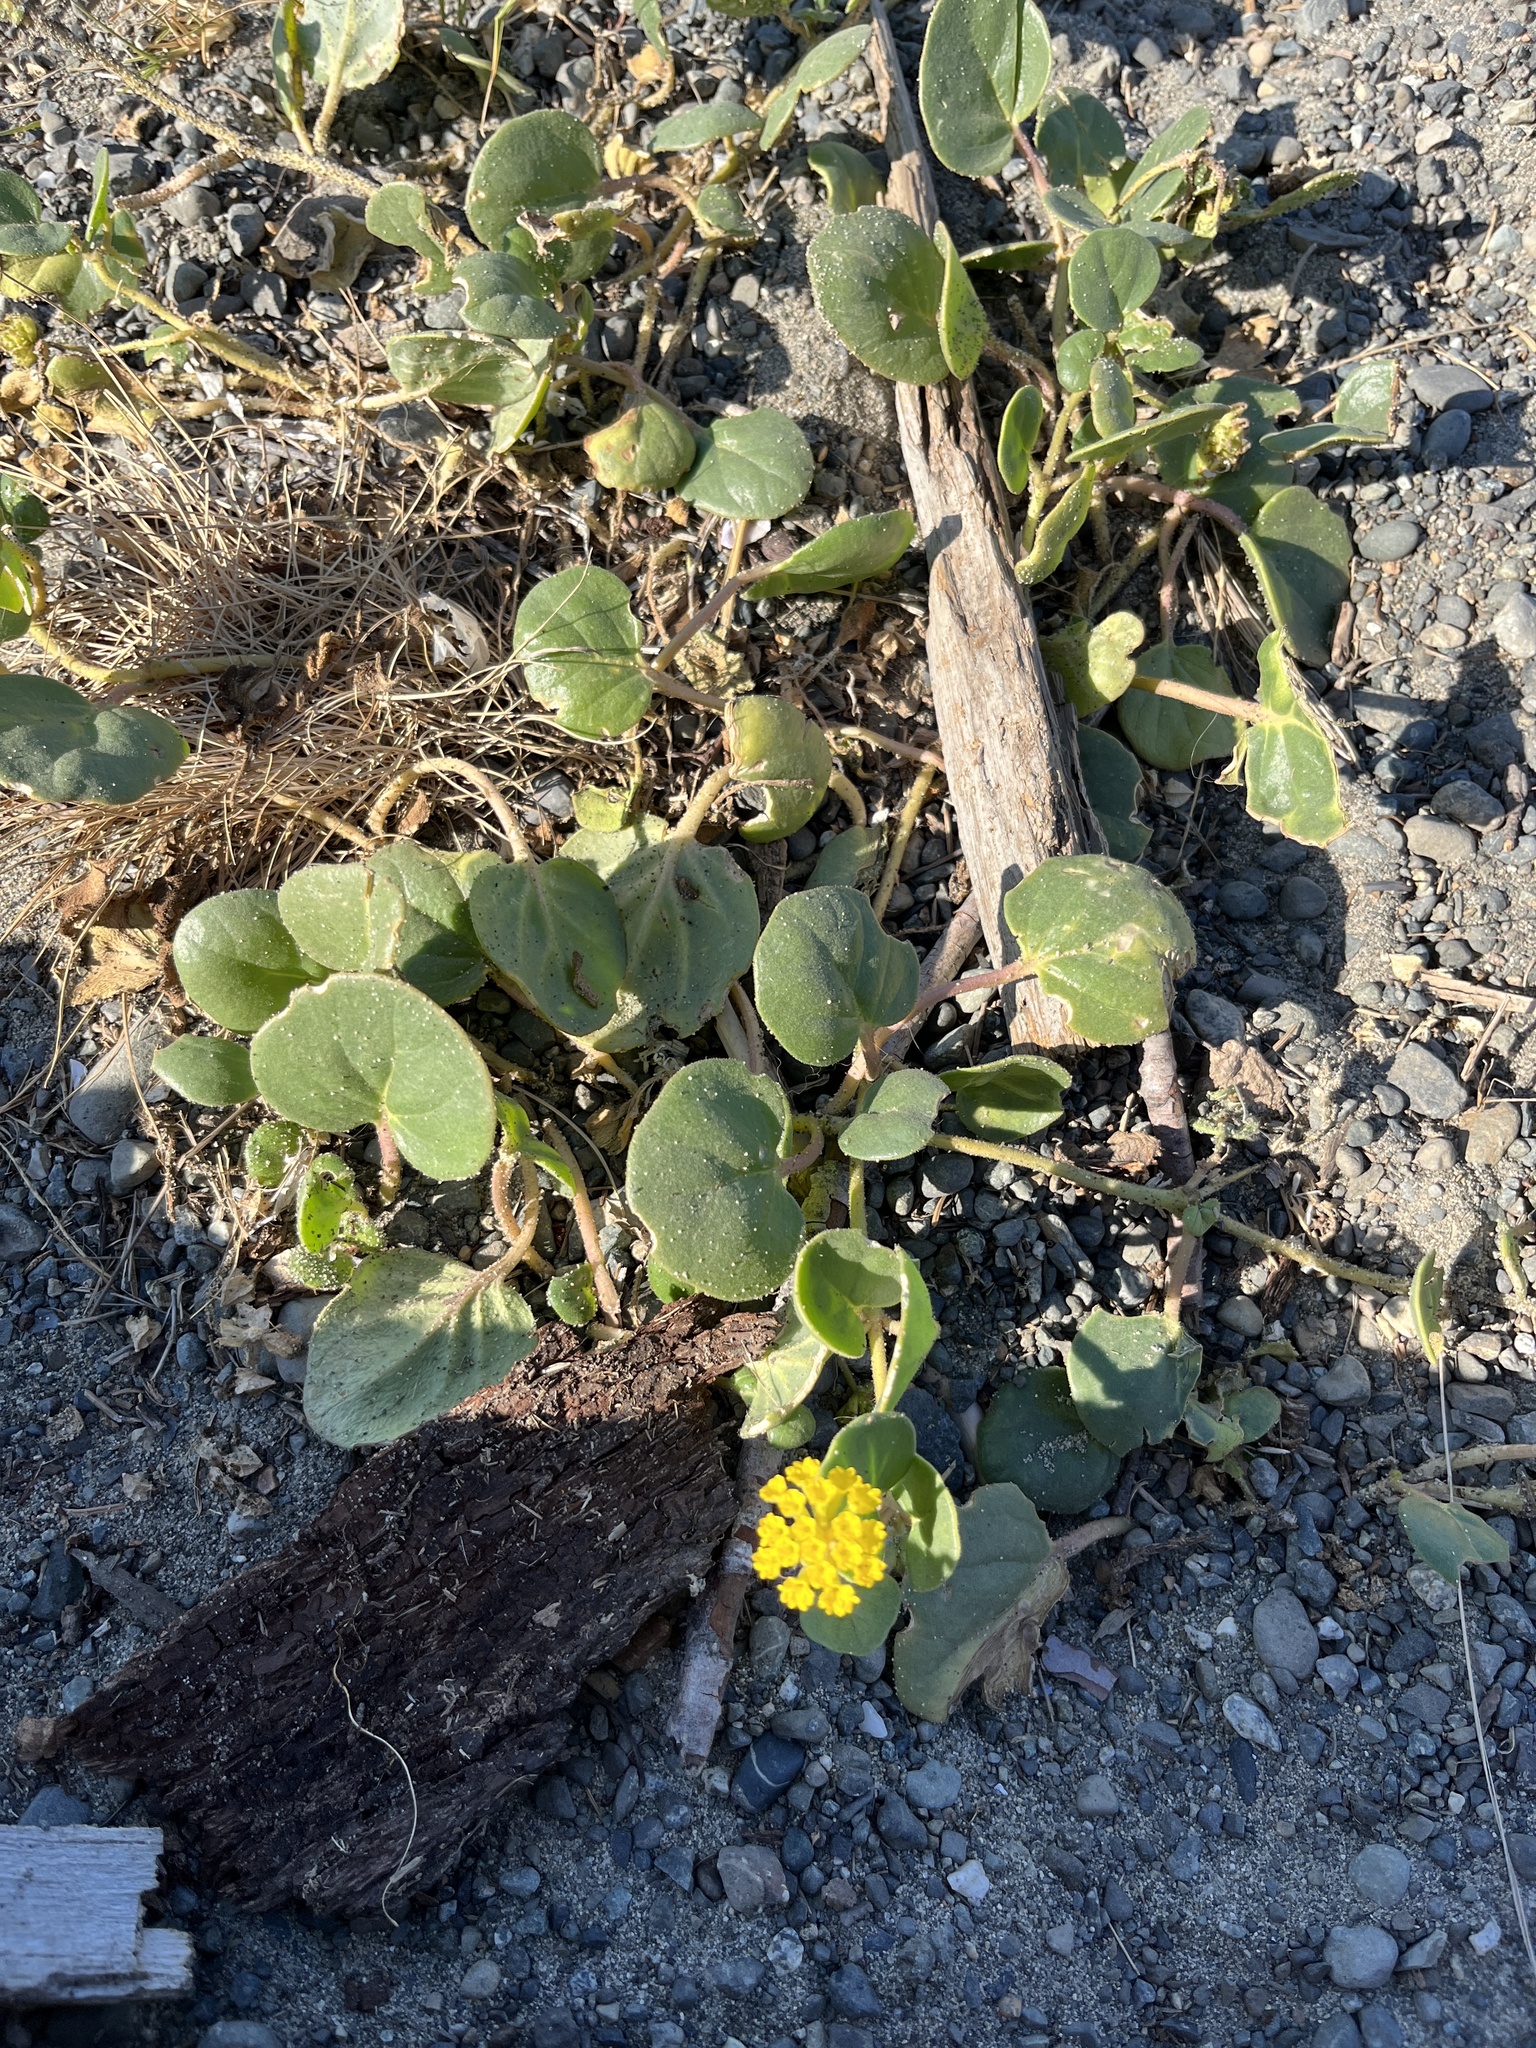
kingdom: Plantae
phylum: Tracheophyta
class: Magnoliopsida
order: Caryophyllales
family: Nyctaginaceae
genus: Abronia
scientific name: Abronia latifolia
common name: Yellow sand-verbena
